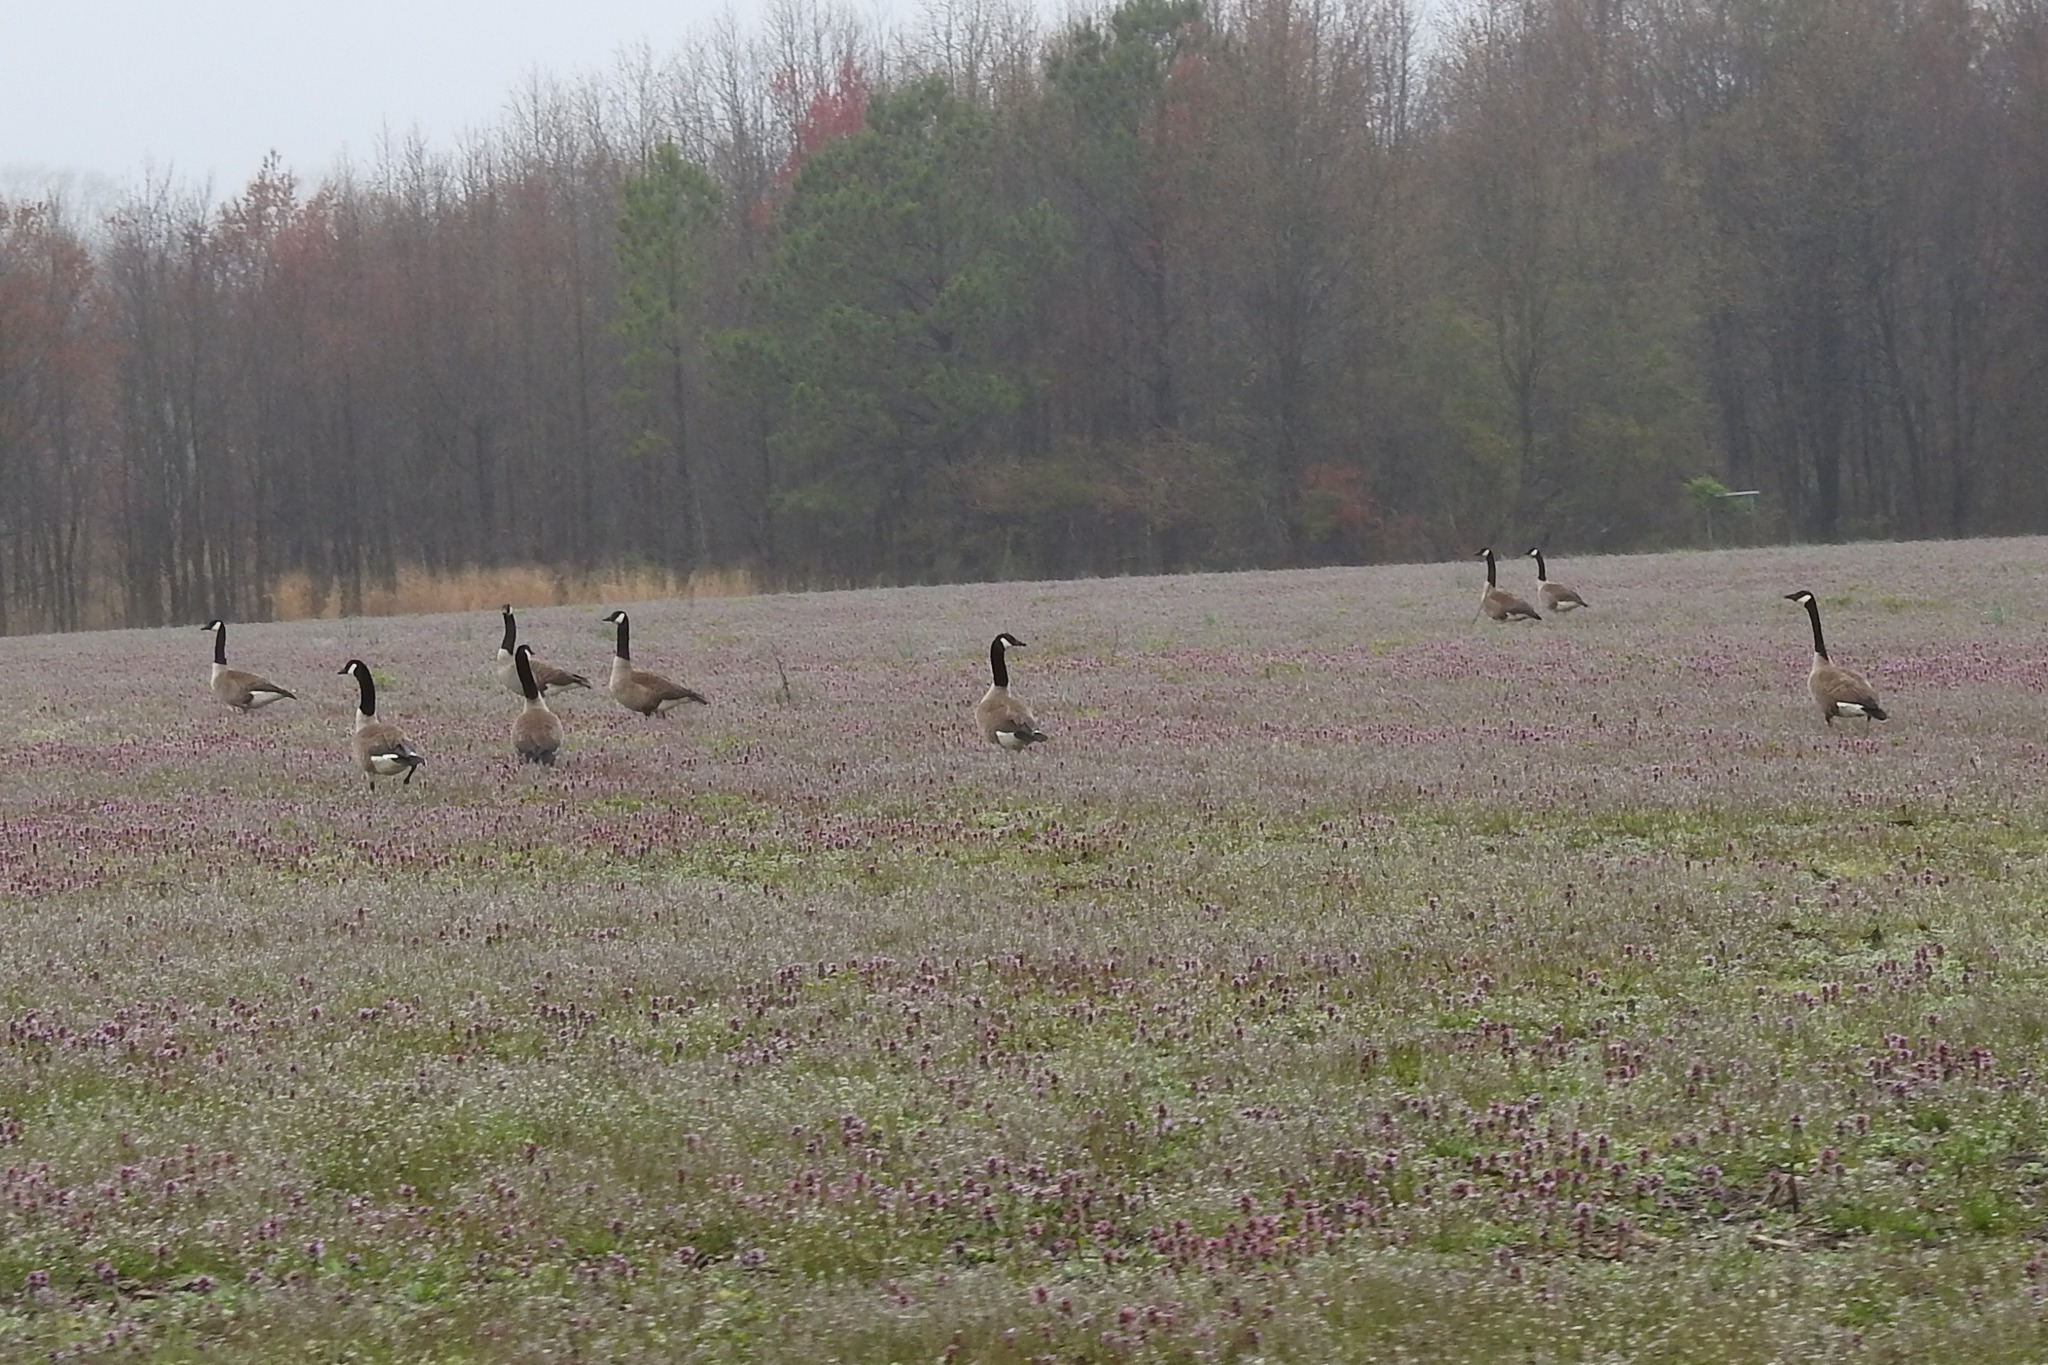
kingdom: Animalia
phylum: Chordata
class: Aves
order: Anseriformes
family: Anatidae
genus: Branta
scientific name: Branta canadensis
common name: Canada goose
